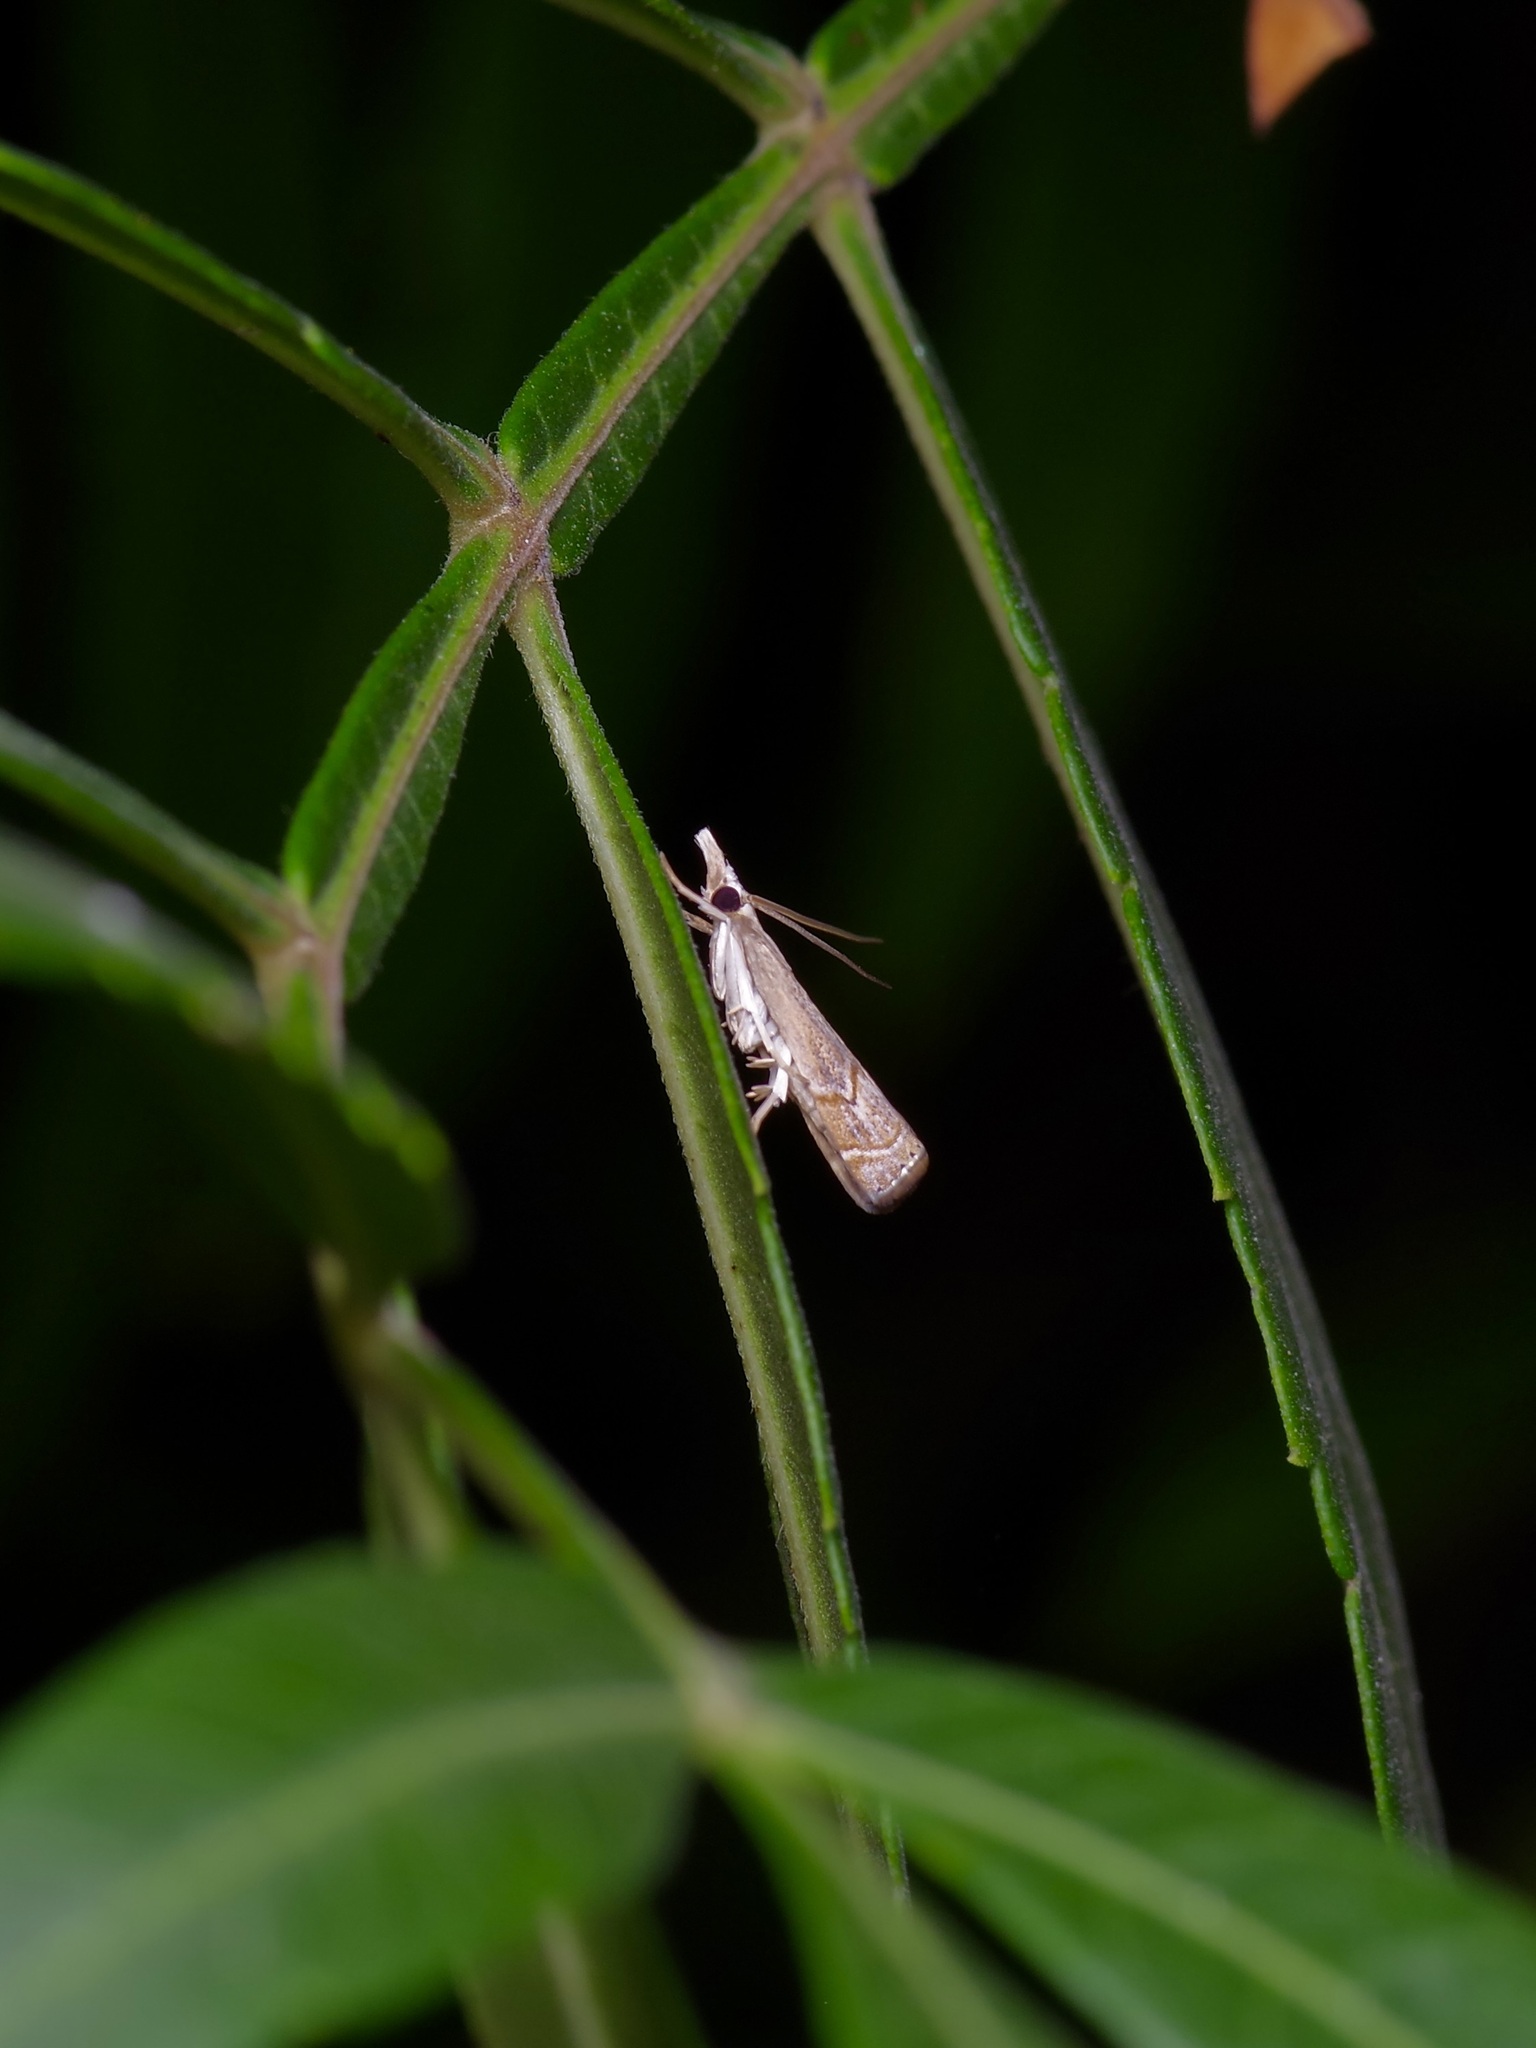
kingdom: Animalia
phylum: Arthropoda
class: Insecta
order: Lepidoptera
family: Crambidae
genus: Parapediasia
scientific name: Parapediasia teterellus
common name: Bluegrass webworm moth
